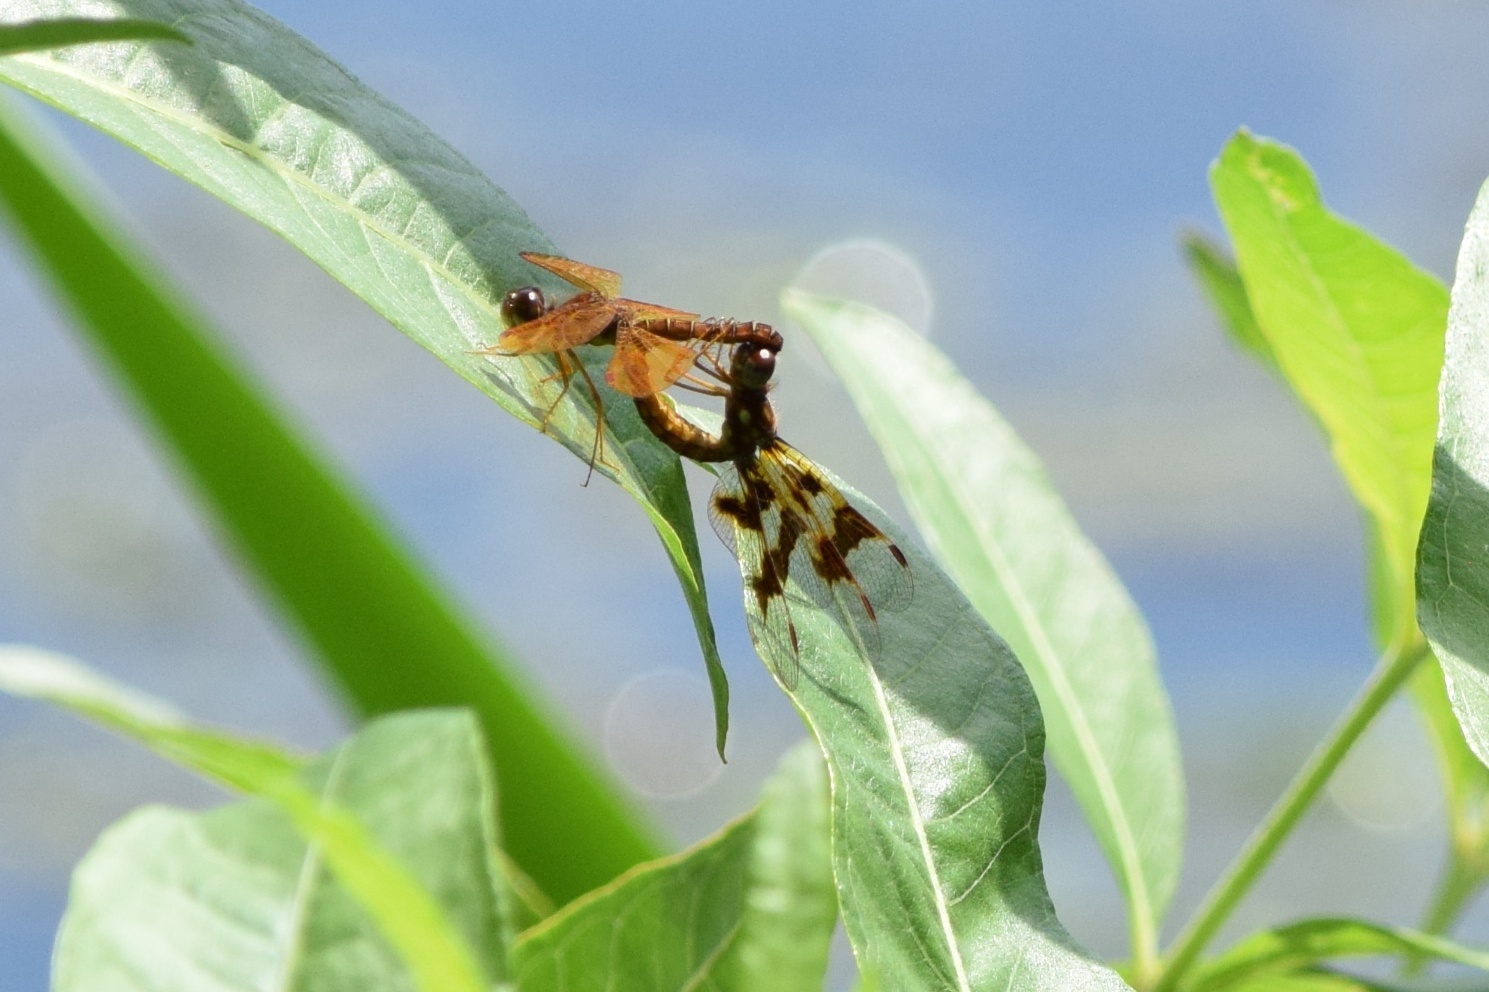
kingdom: Animalia
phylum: Arthropoda
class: Insecta
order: Odonata
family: Libellulidae
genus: Perithemis
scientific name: Perithemis tenera
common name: Eastern amberwing
